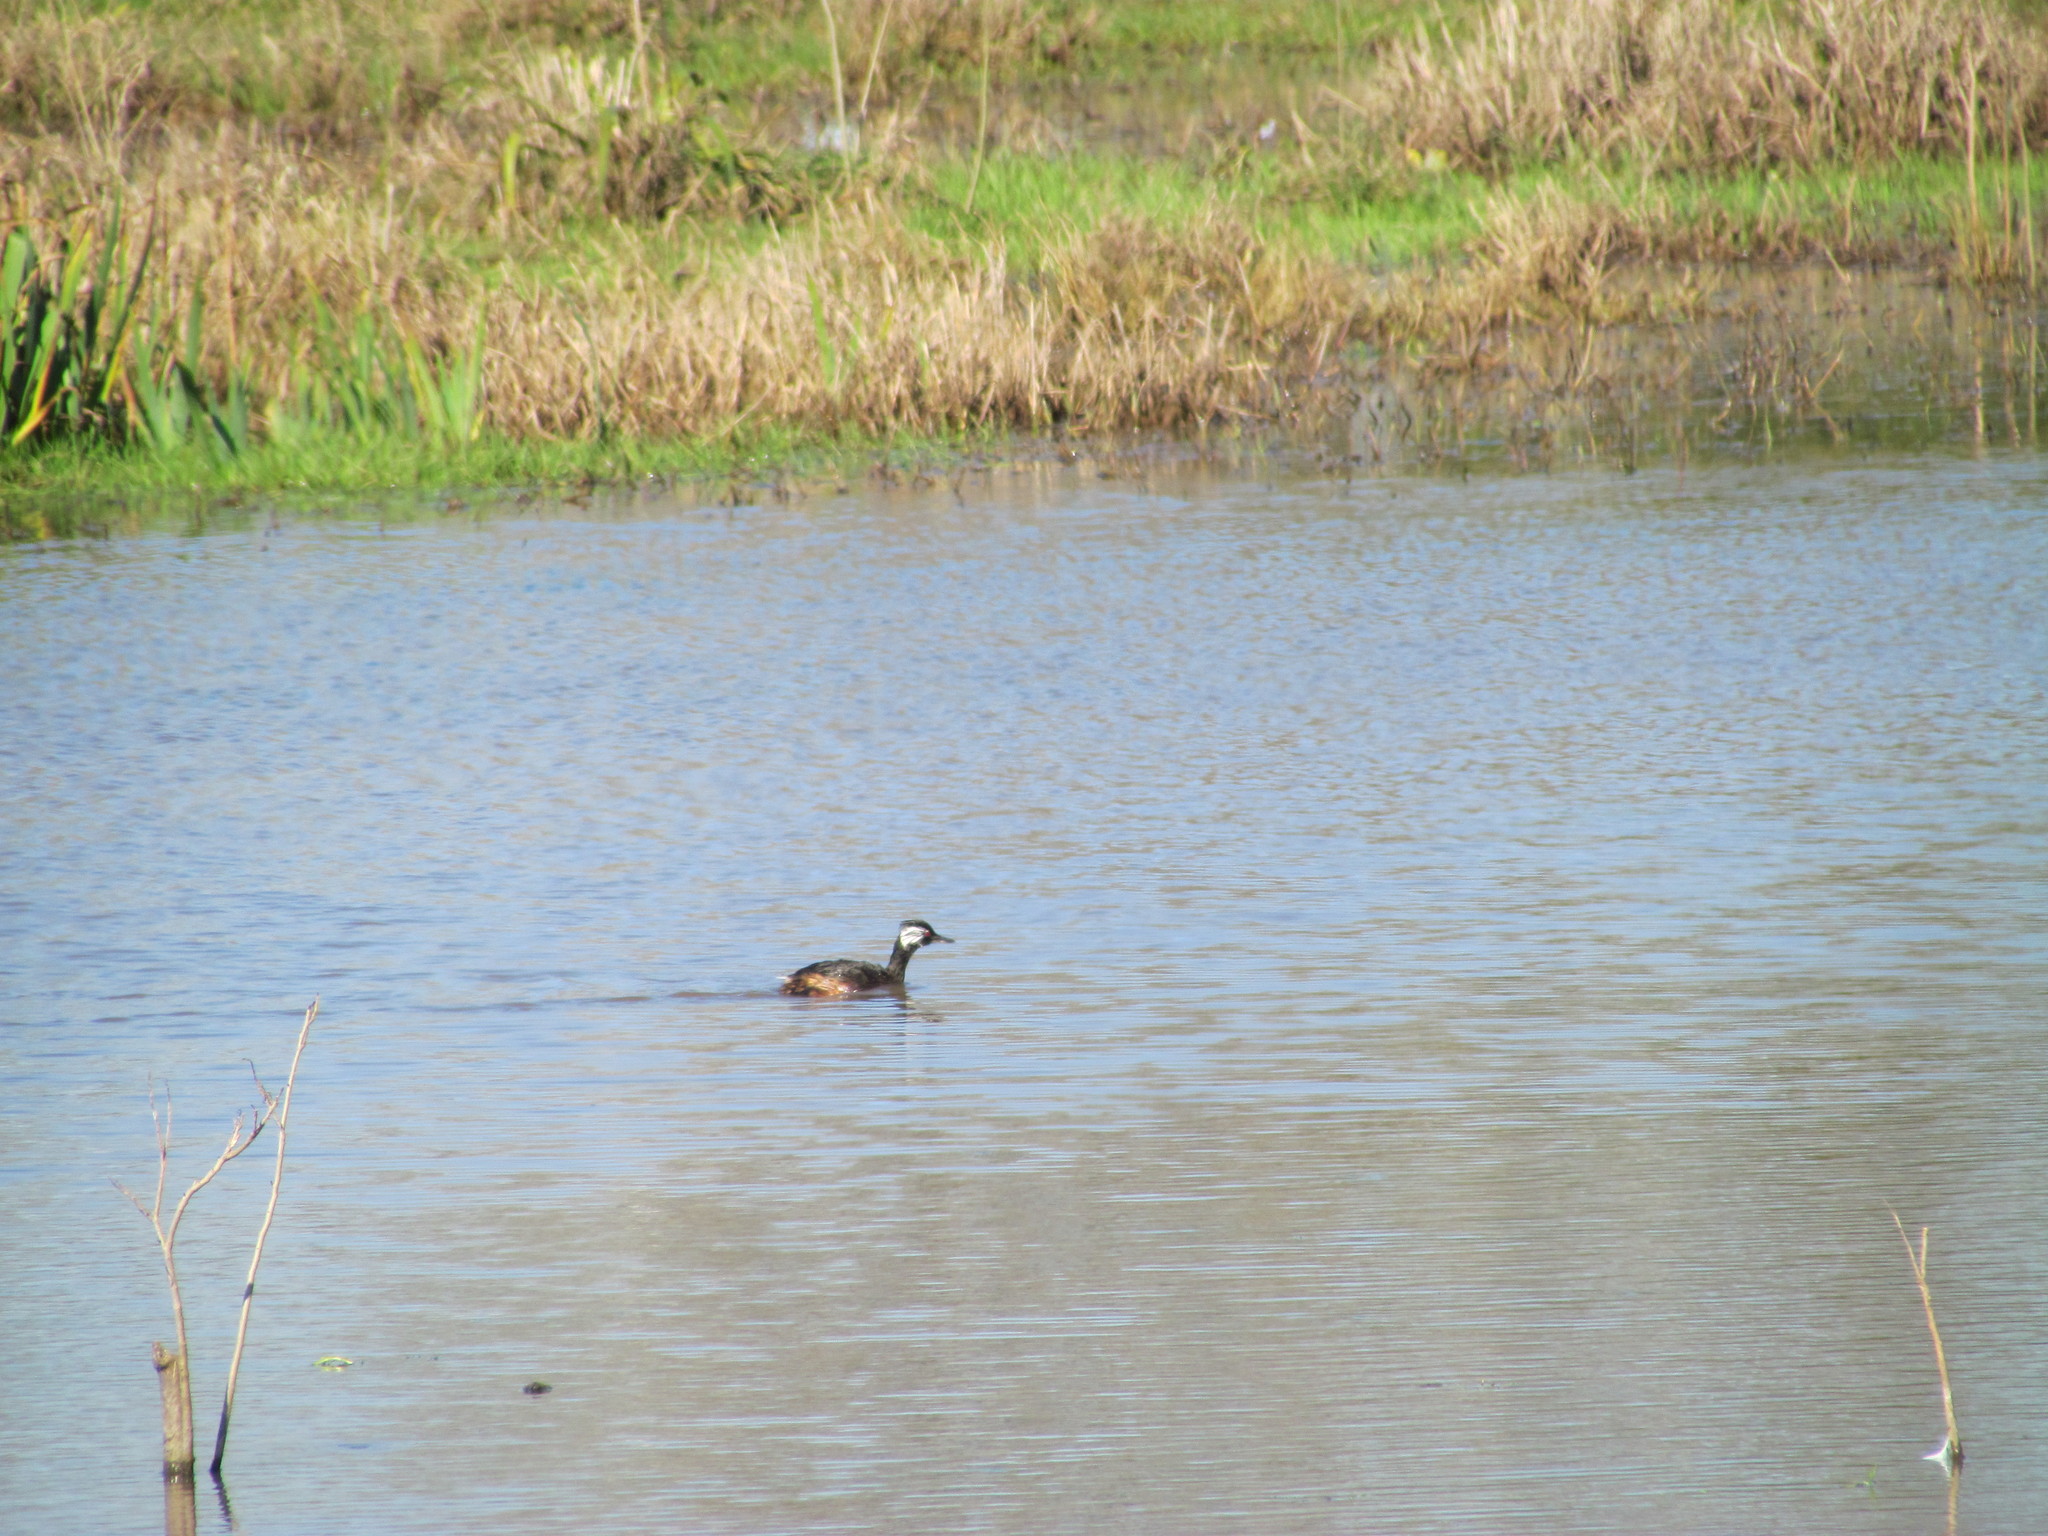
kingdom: Animalia
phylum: Chordata
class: Aves
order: Podicipediformes
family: Podicipedidae
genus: Rollandia
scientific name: Rollandia rolland
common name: White-tufted grebe
